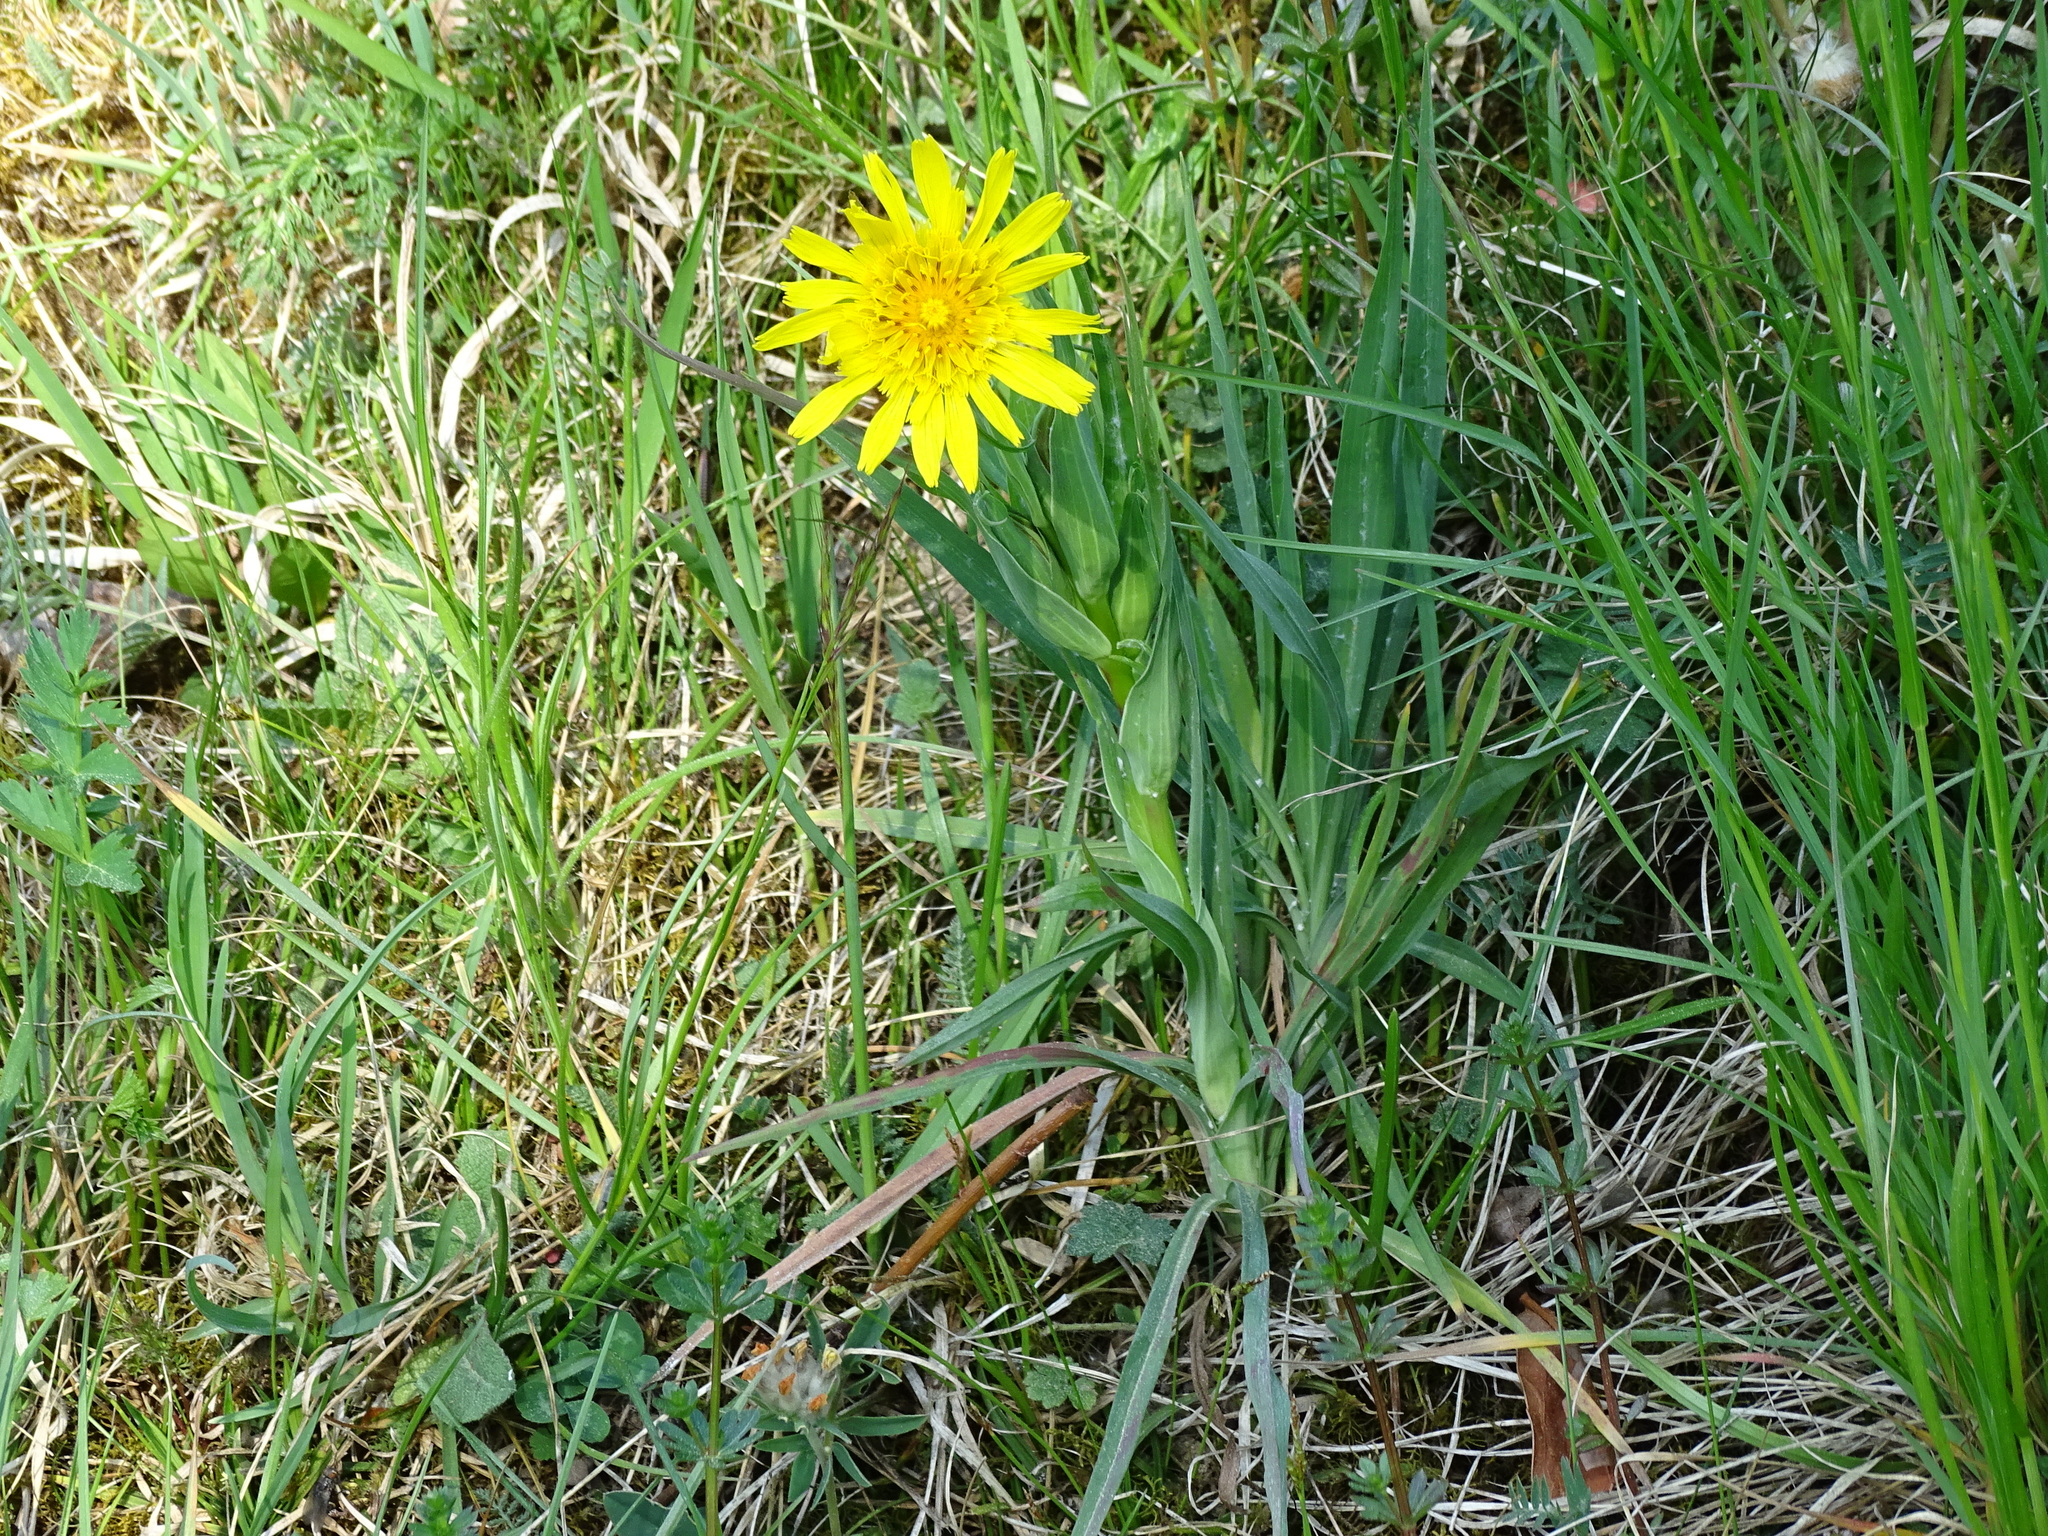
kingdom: Plantae
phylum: Tracheophyta
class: Magnoliopsida
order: Asterales
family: Asteraceae
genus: Tragopogon
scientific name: Tragopogon orientalis
